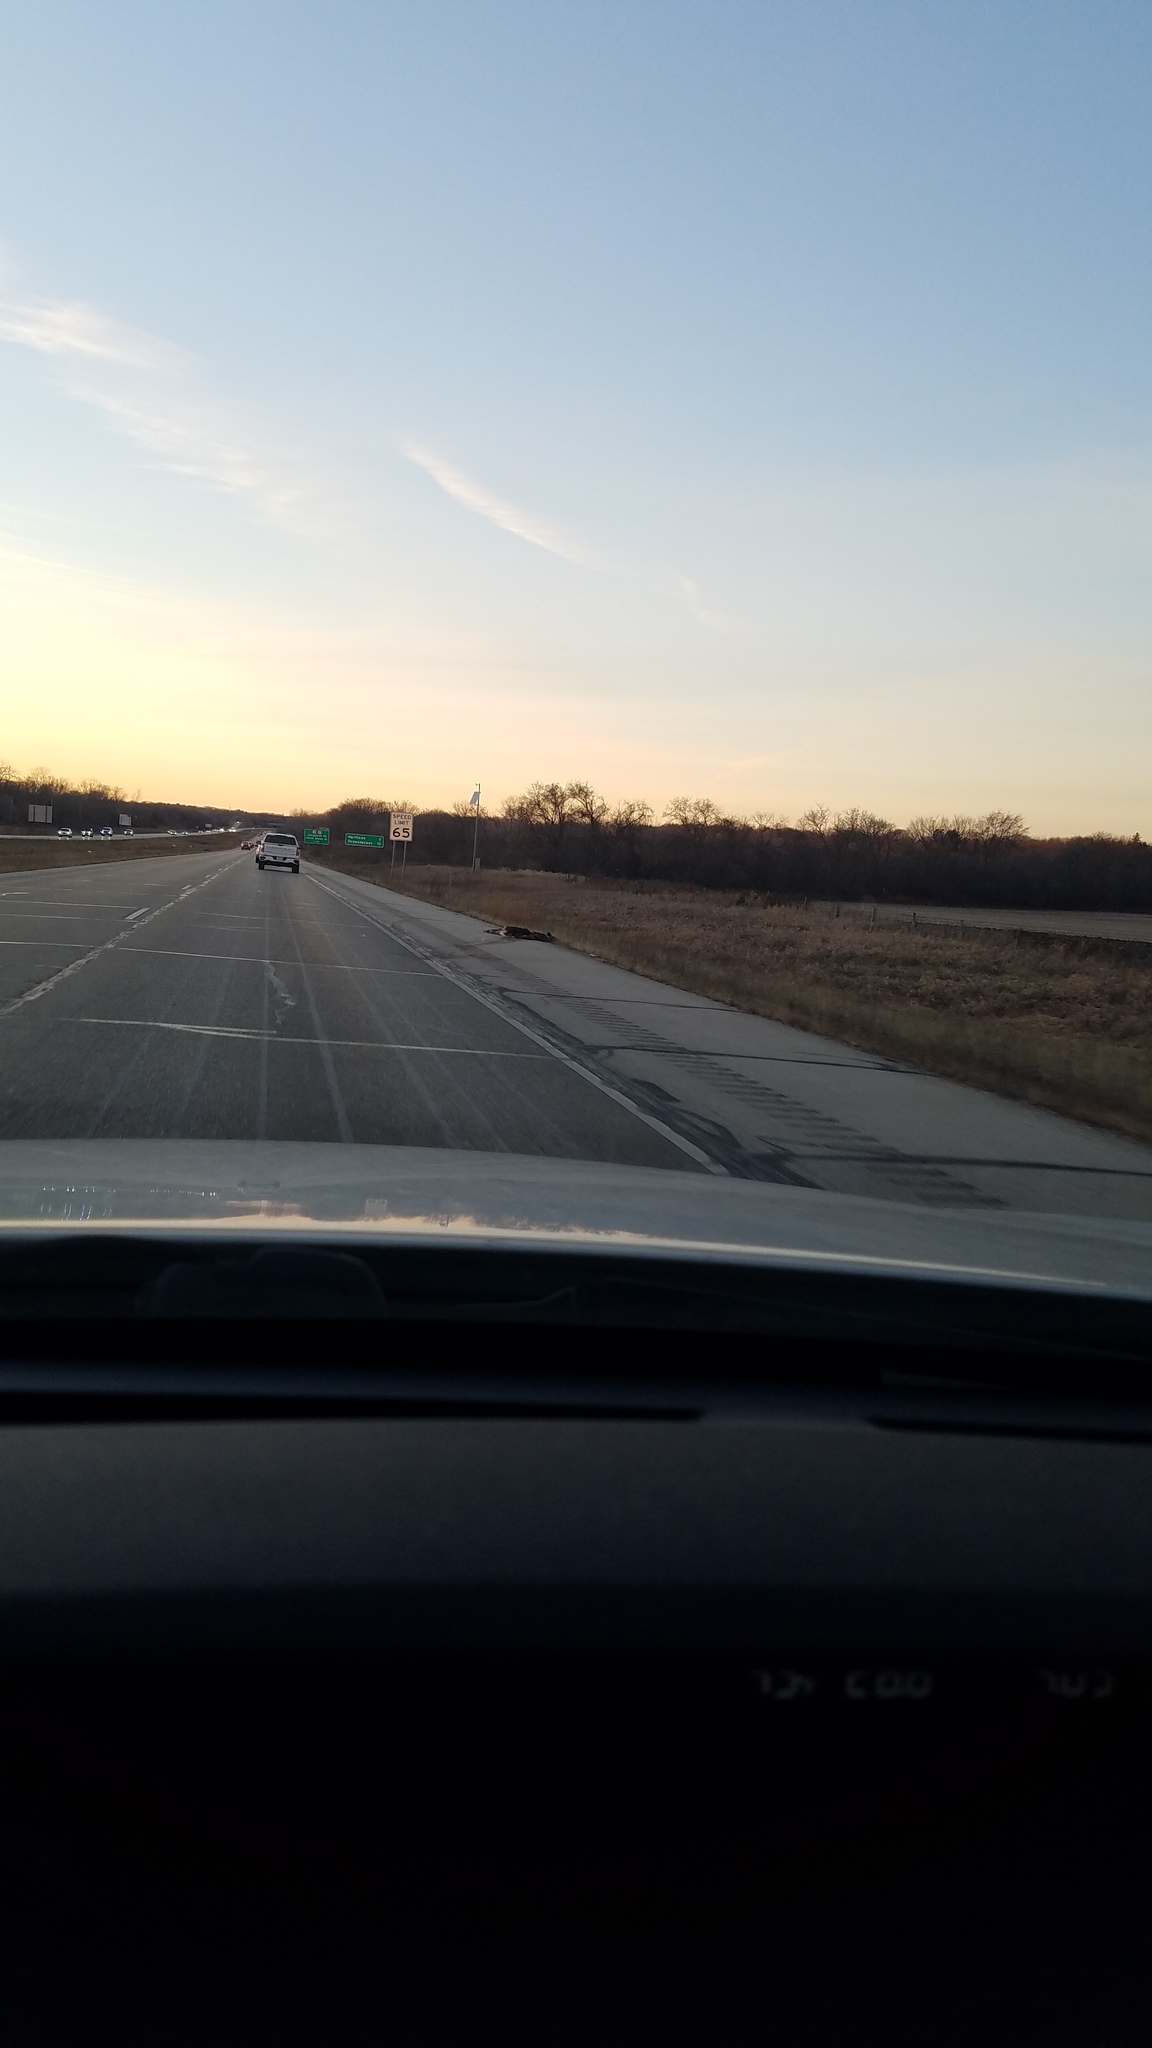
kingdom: Animalia
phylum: Chordata
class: Mammalia
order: Artiodactyla
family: Cervidae
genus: Odocoileus
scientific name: Odocoileus virginianus
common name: White-tailed deer
